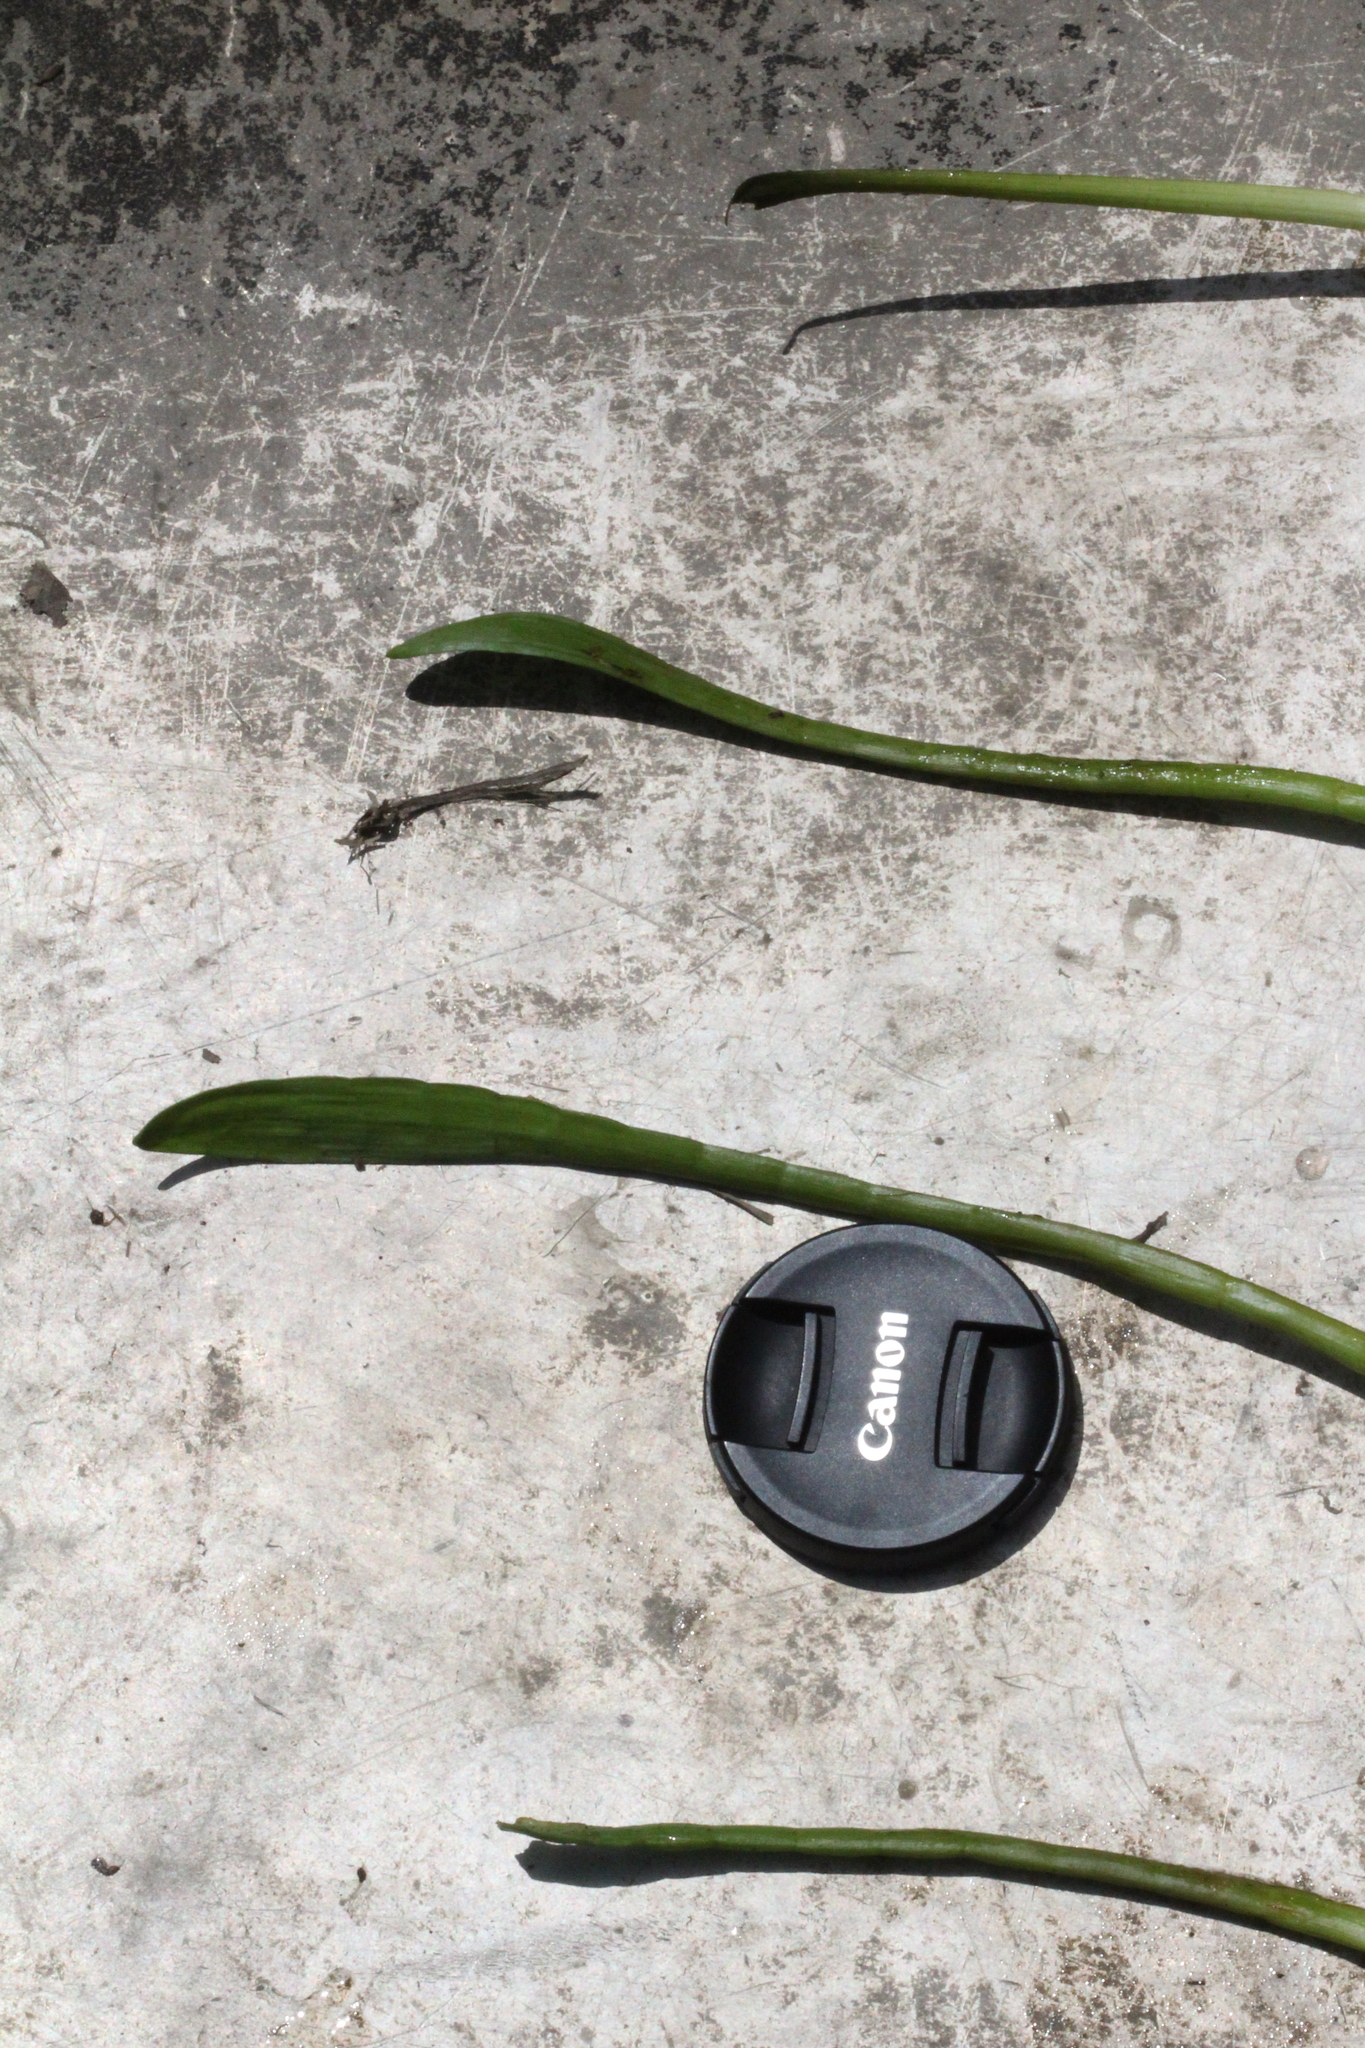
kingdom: Plantae
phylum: Tracheophyta
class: Magnoliopsida
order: Apiales
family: Apiaceae
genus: Lilaeopsis
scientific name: Lilaeopsis carolinensis
